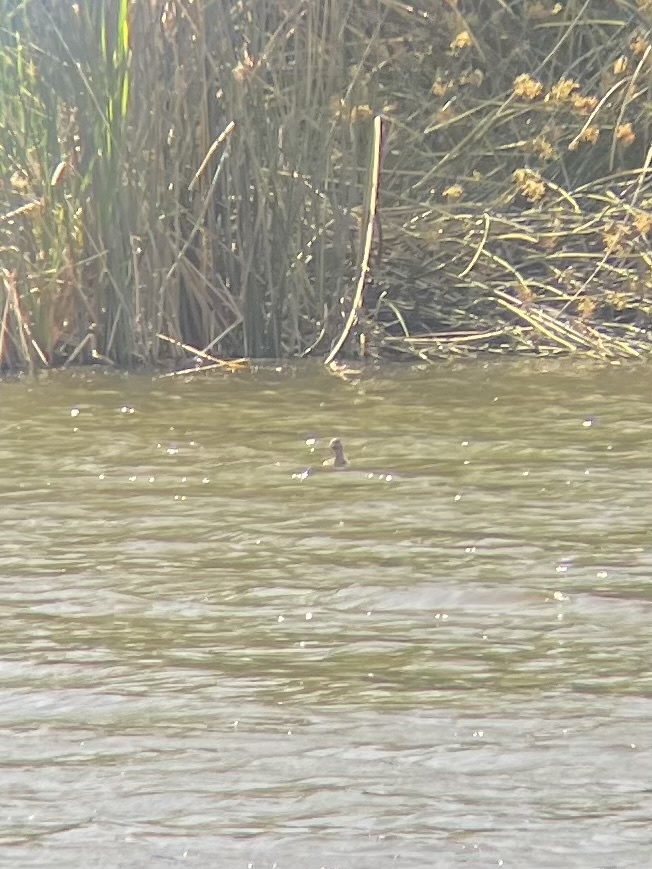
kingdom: Animalia
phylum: Chordata
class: Aves
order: Podicipediformes
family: Podicipedidae
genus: Podilymbus
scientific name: Podilymbus podiceps
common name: Pied-billed grebe
